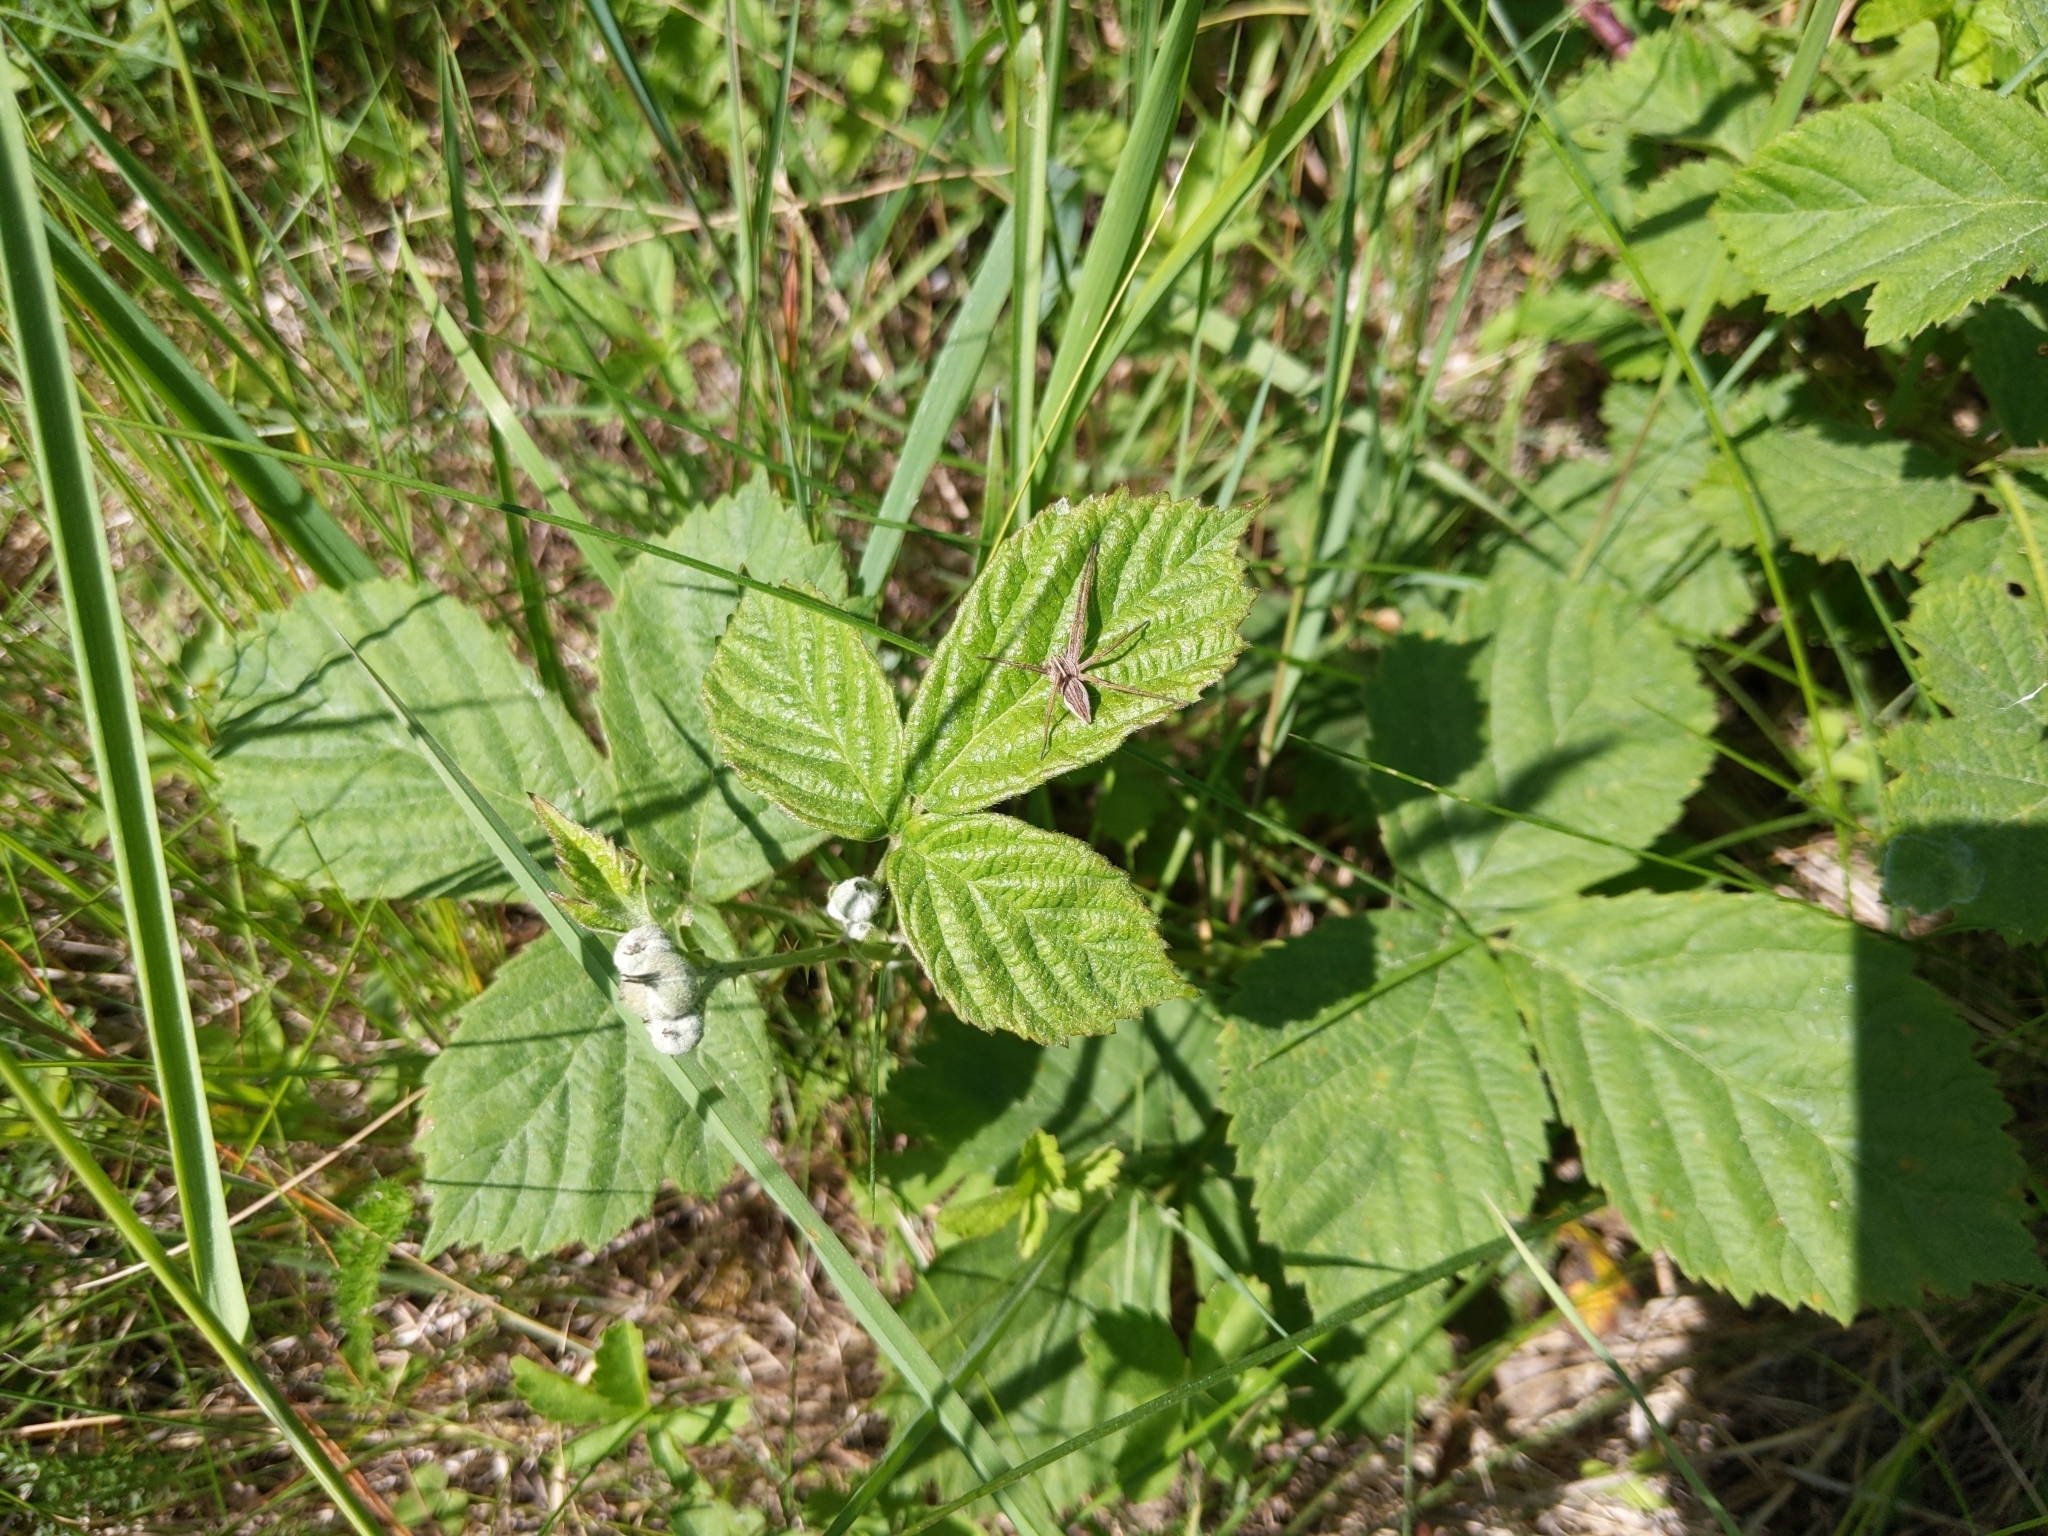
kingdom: Animalia
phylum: Arthropoda
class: Arachnida
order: Araneae
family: Pisauridae
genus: Pisaura
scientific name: Pisaura mirabilis
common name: Tent spider
